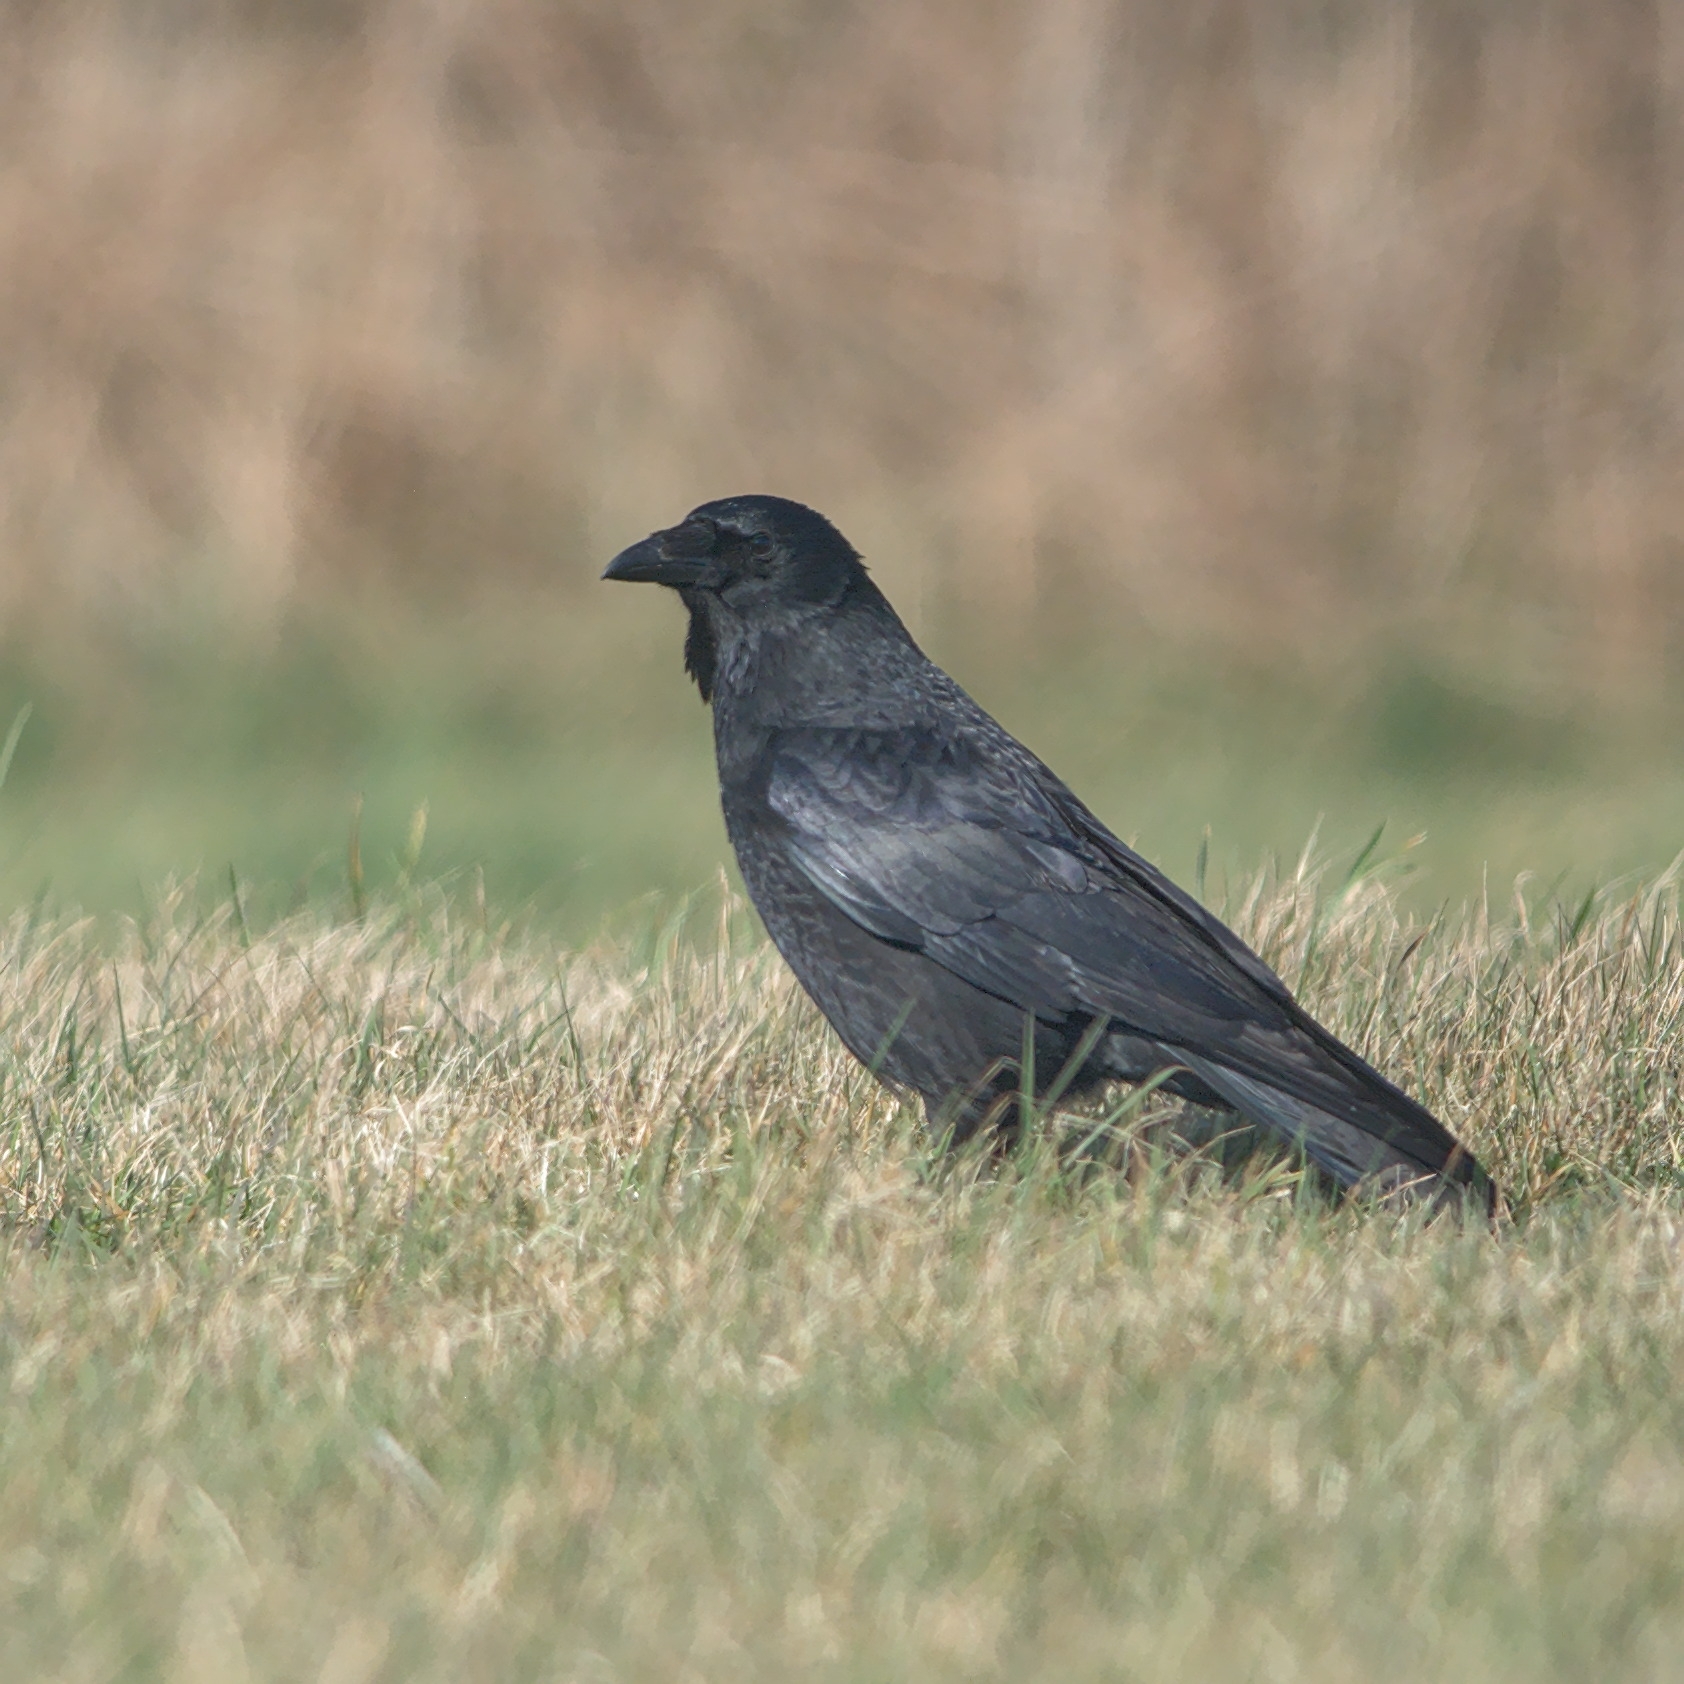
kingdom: Animalia
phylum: Chordata
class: Aves
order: Passeriformes
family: Corvidae
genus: Corvus
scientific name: Corvus corone
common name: Carrion crow
